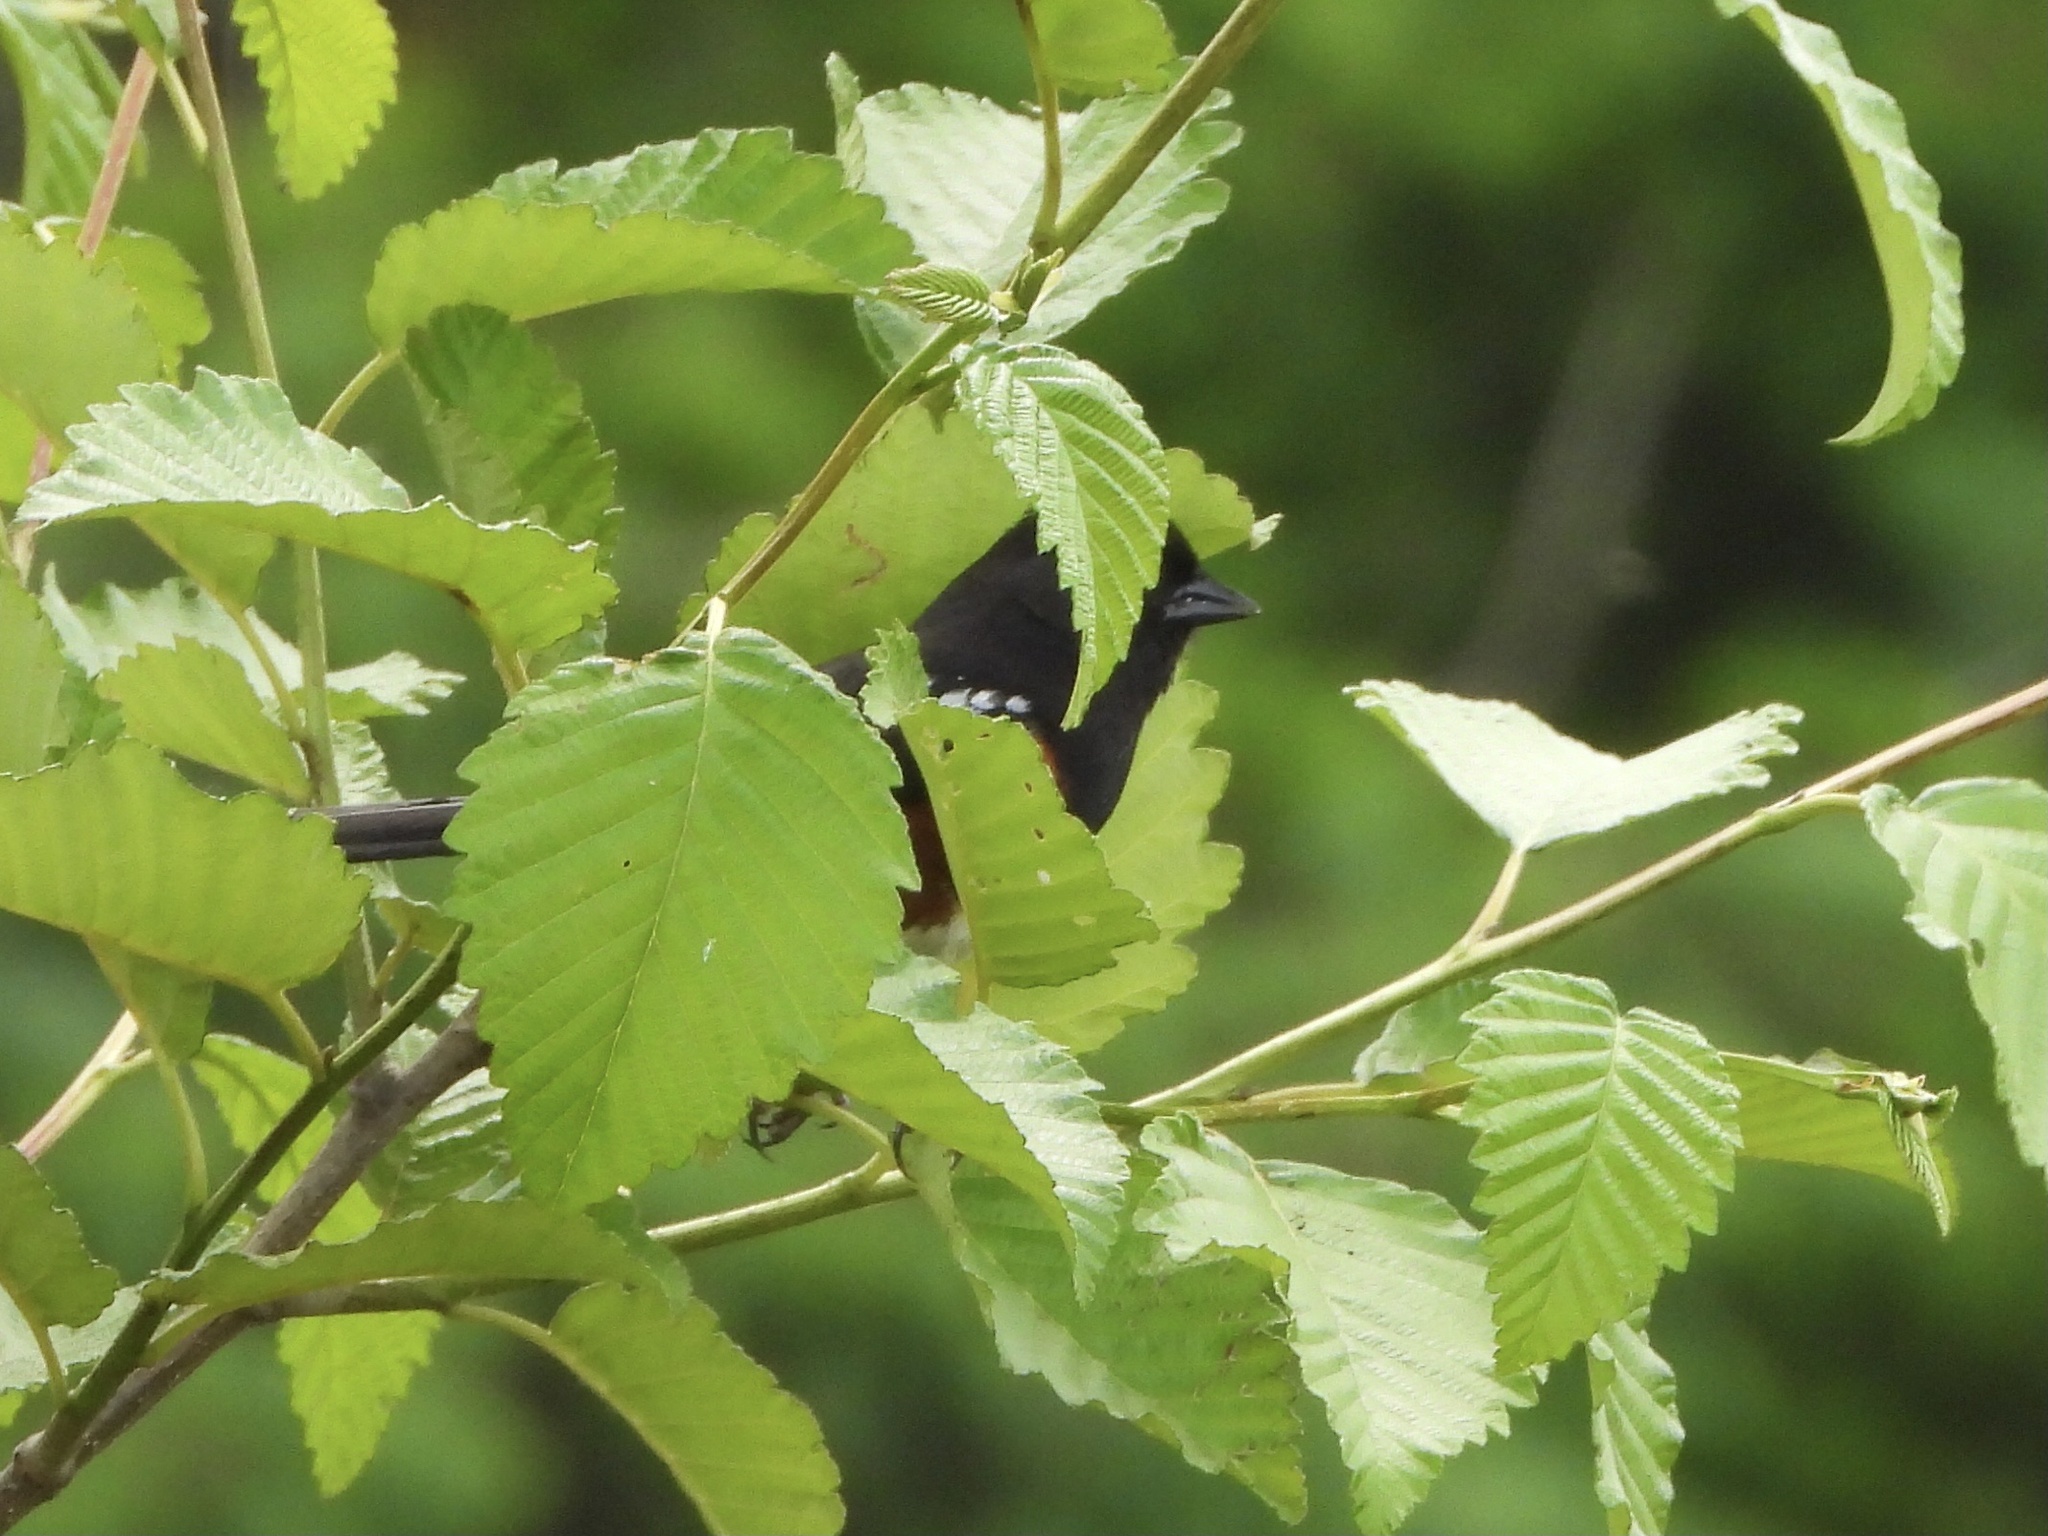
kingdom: Animalia
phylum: Chordata
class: Aves
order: Passeriformes
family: Passerellidae
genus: Pipilo
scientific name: Pipilo maculatus
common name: Spotted towhee
